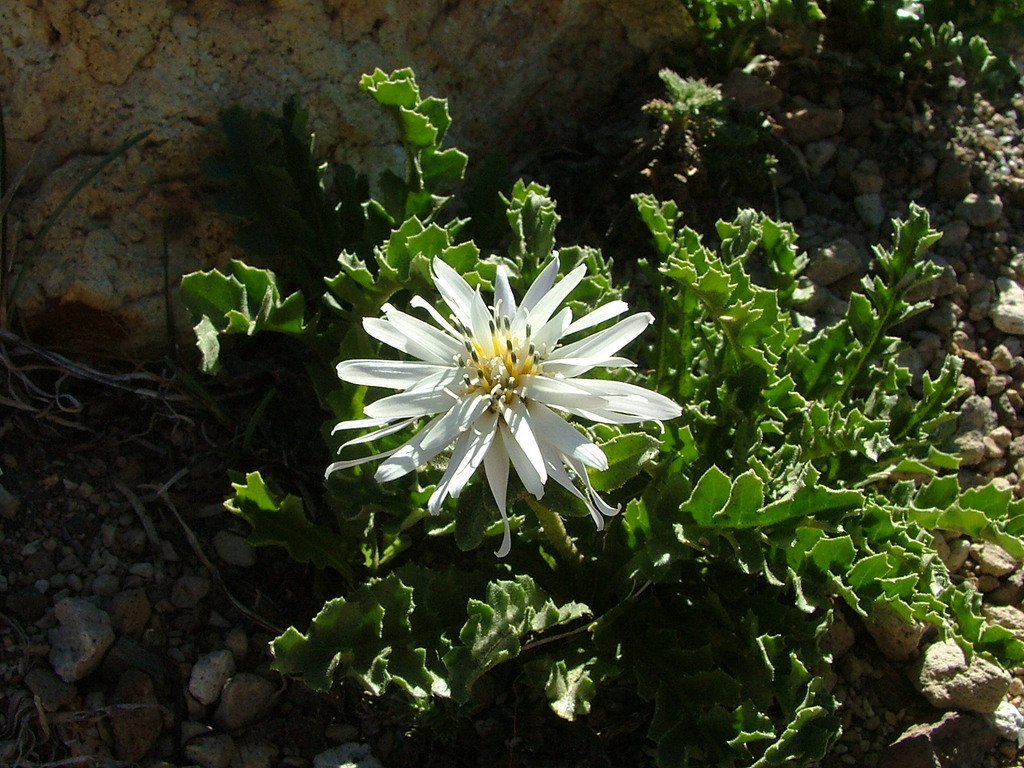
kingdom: Plantae
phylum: Tracheophyta
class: Magnoliopsida
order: Asterales
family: Asteraceae
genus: Perezia
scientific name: Perezia lyrata
